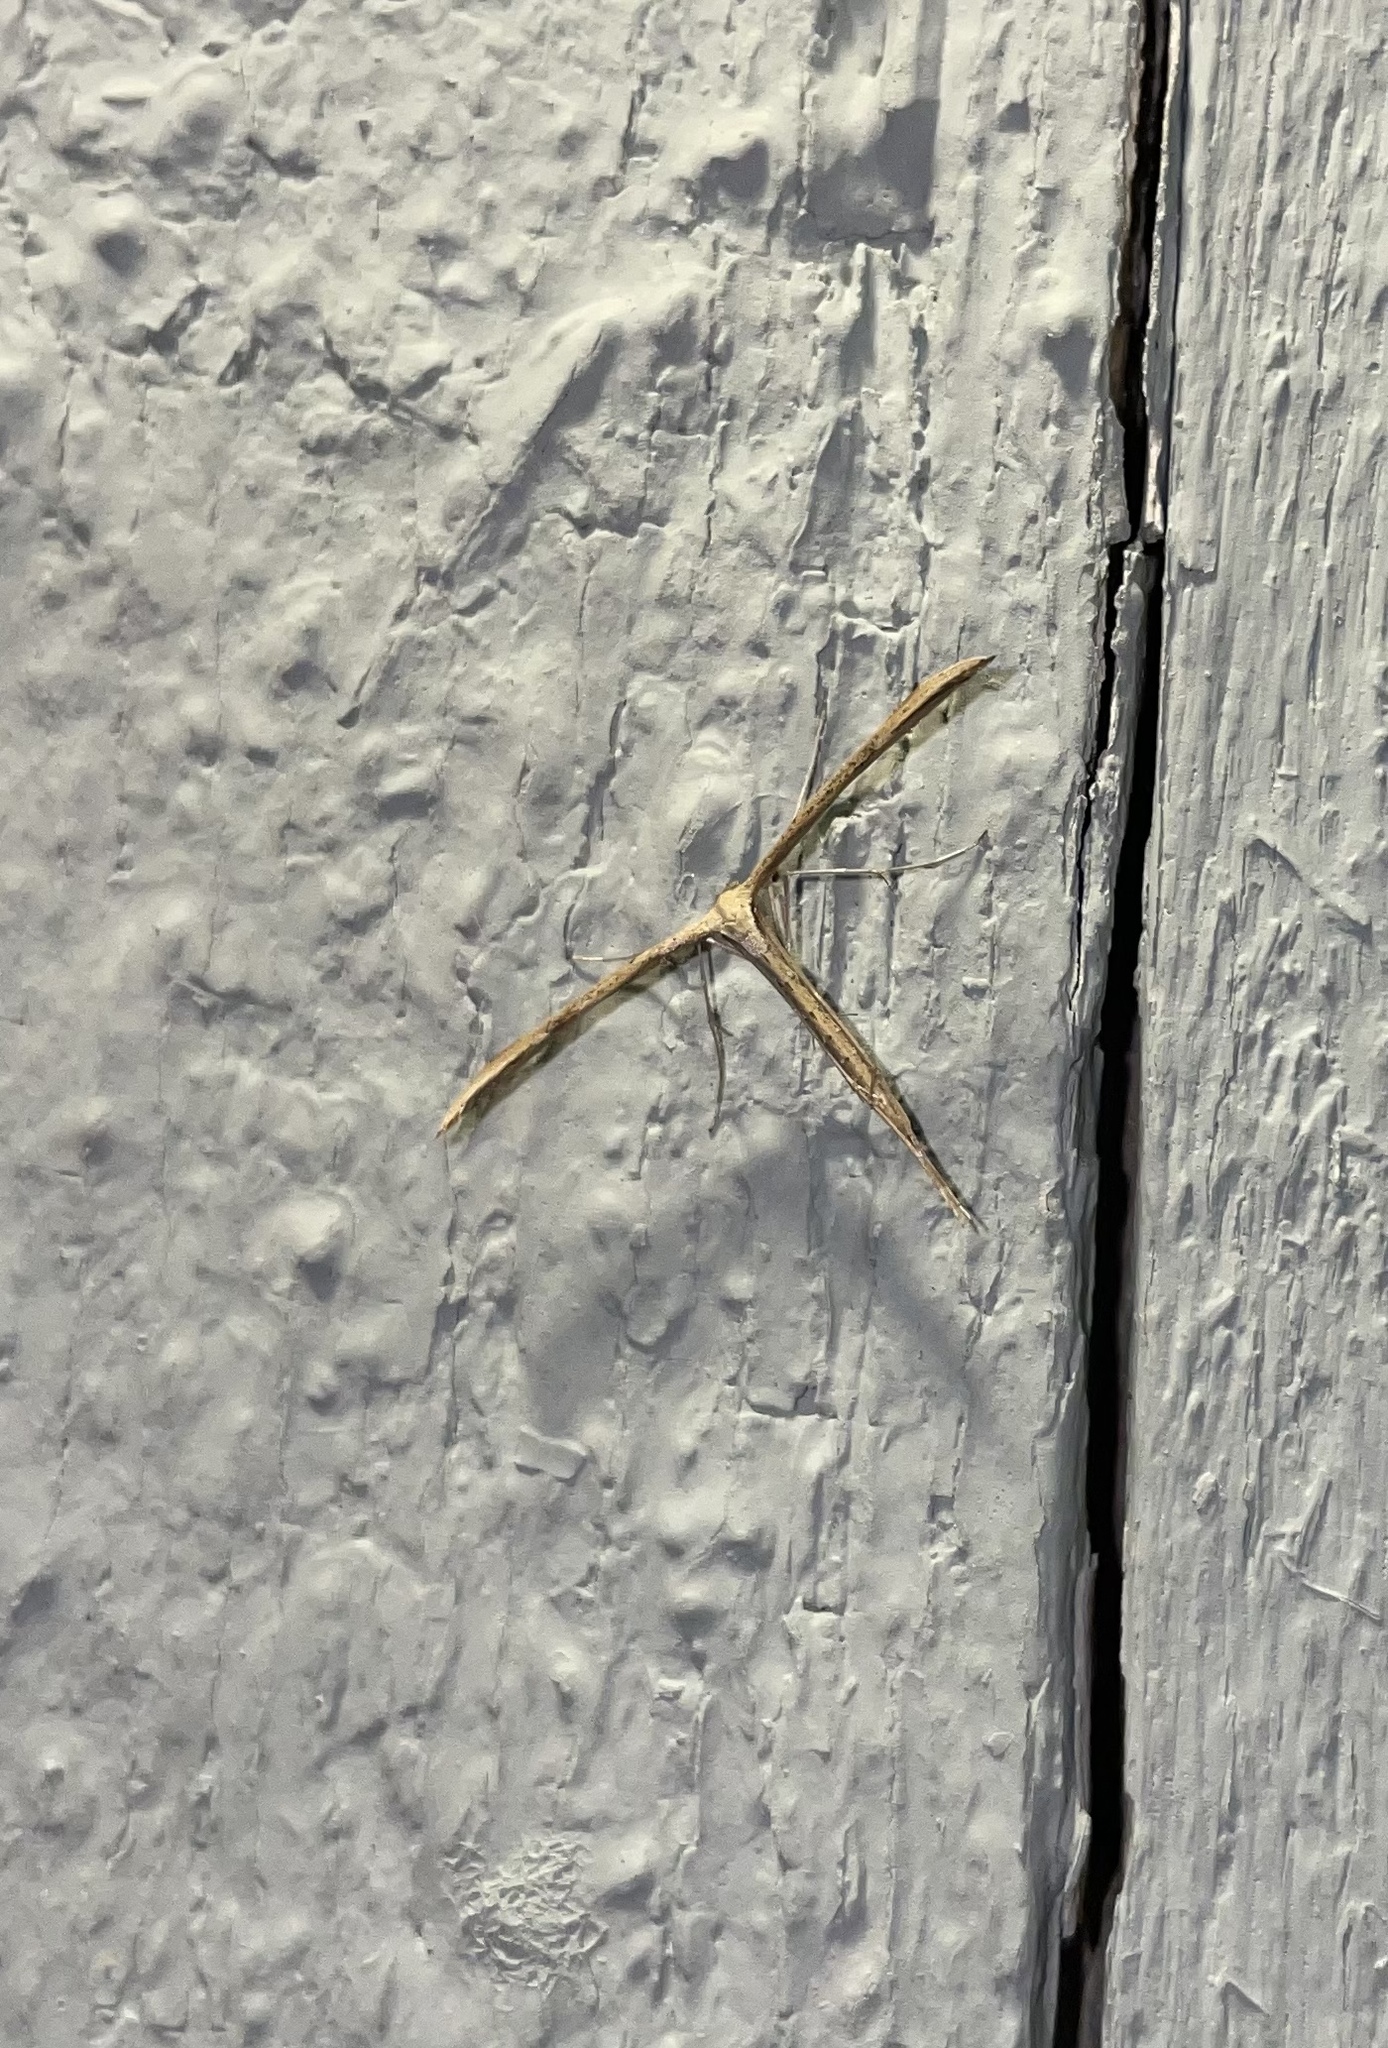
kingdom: Animalia
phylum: Arthropoda
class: Insecta
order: Lepidoptera
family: Pterophoridae
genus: Emmelina
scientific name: Emmelina monodactyla
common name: Common plume
